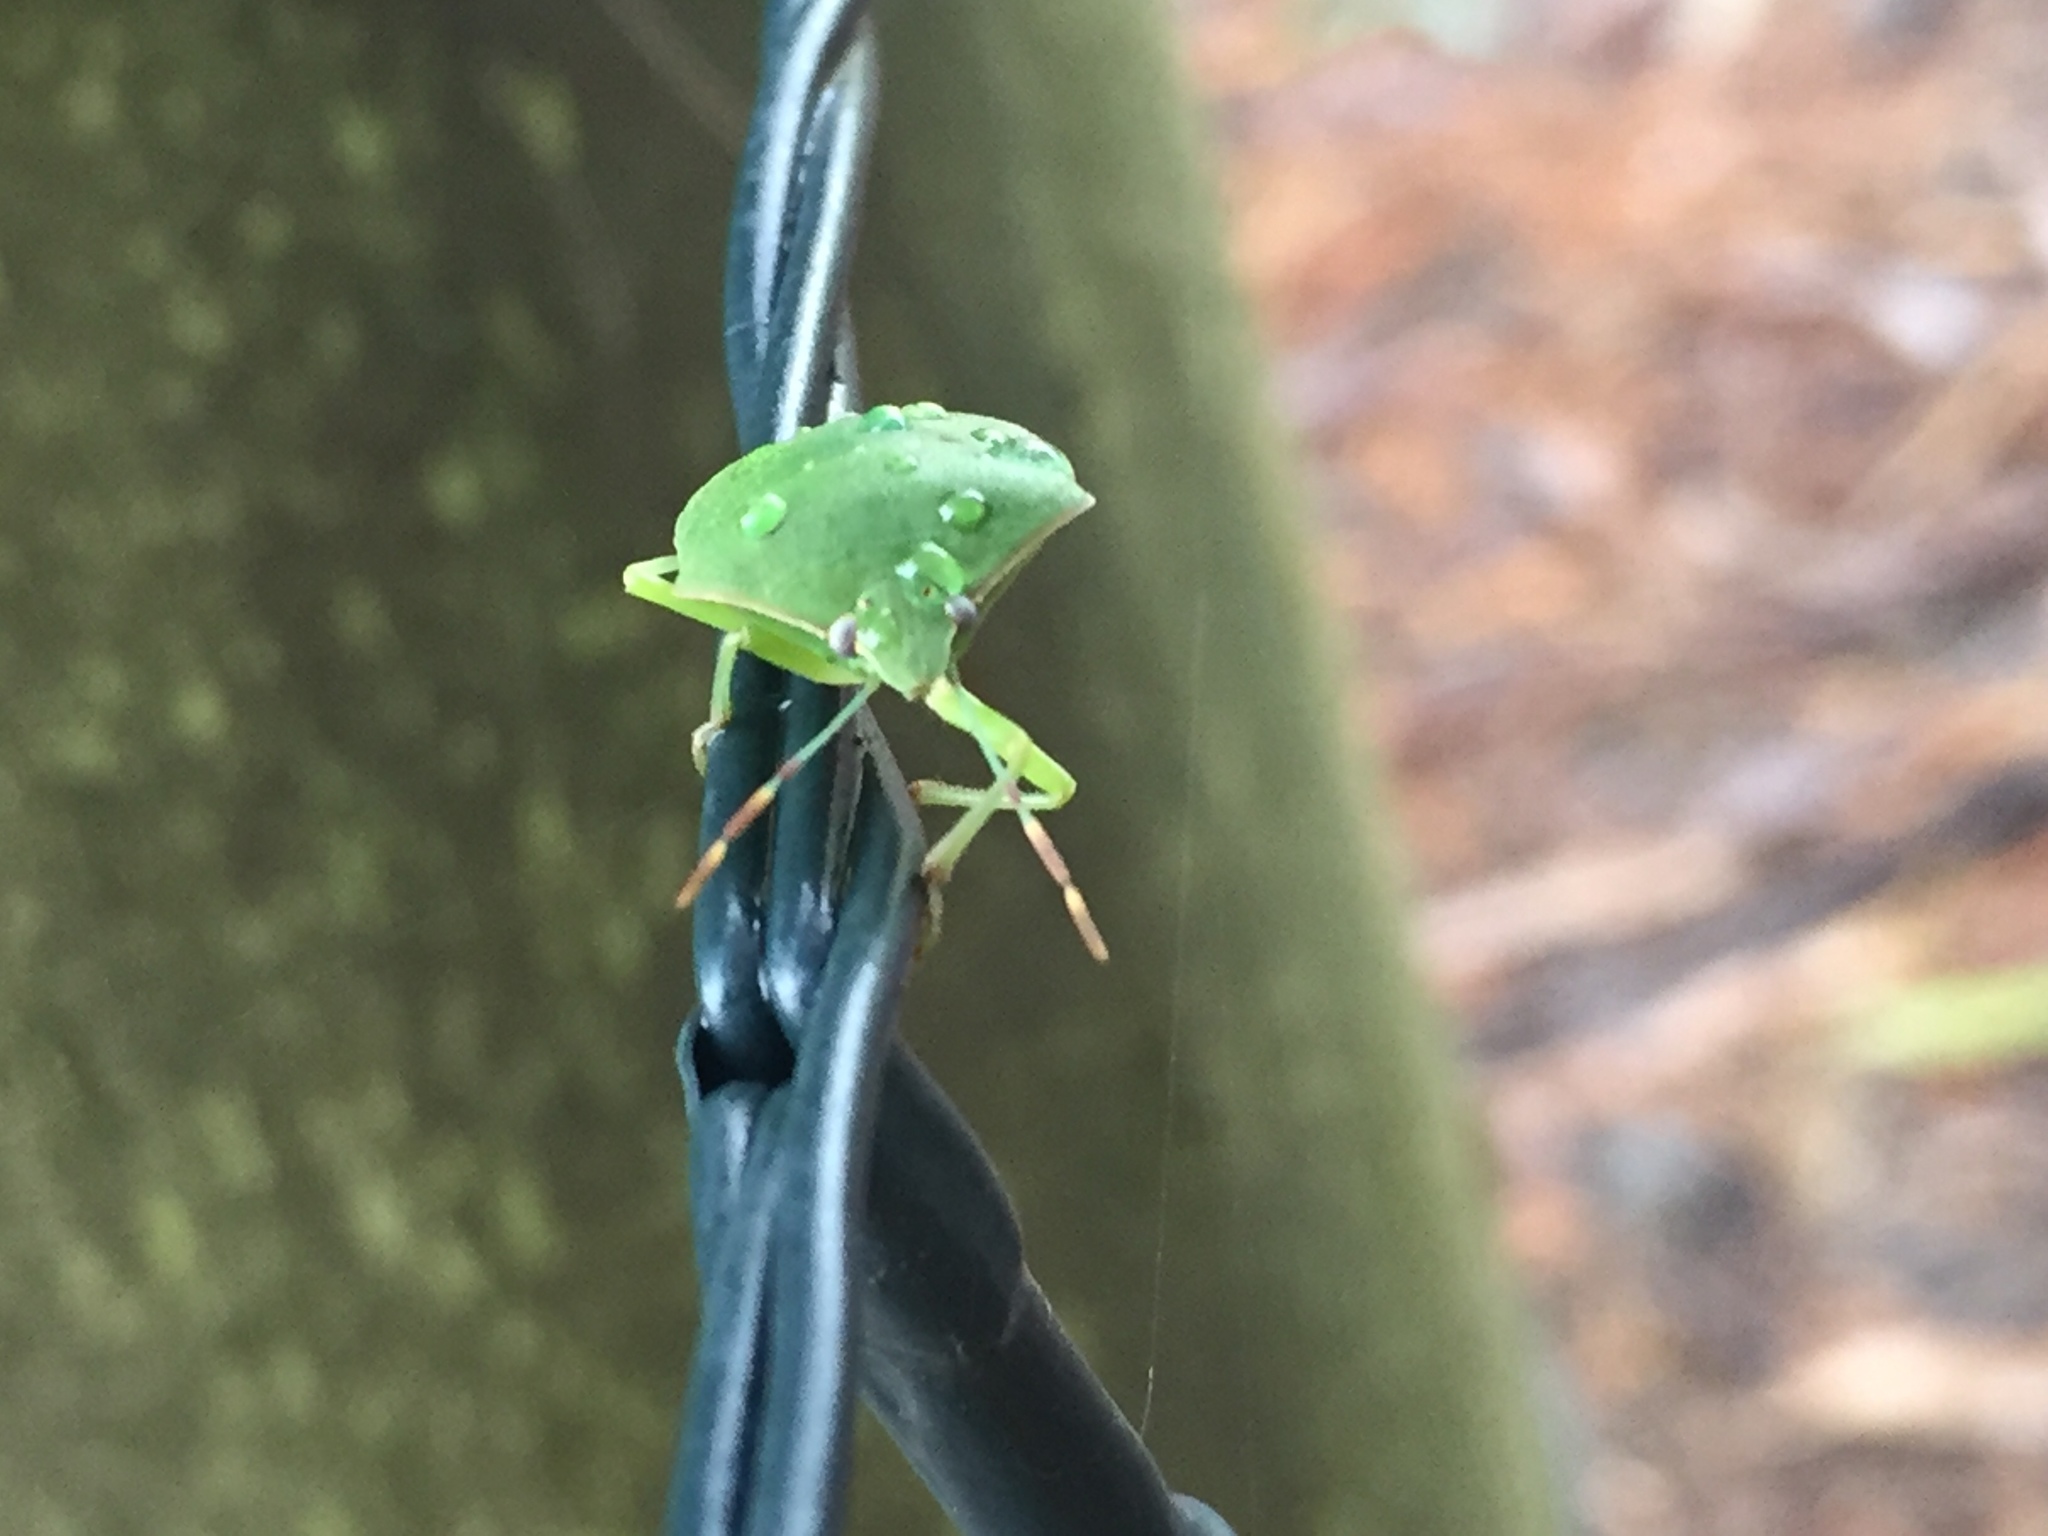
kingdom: Animalia
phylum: Arthropoda
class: Insecta
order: Hemiptera
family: Pentatomidae
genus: Nezara
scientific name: Nezara viridula
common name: Southern green stink bug
